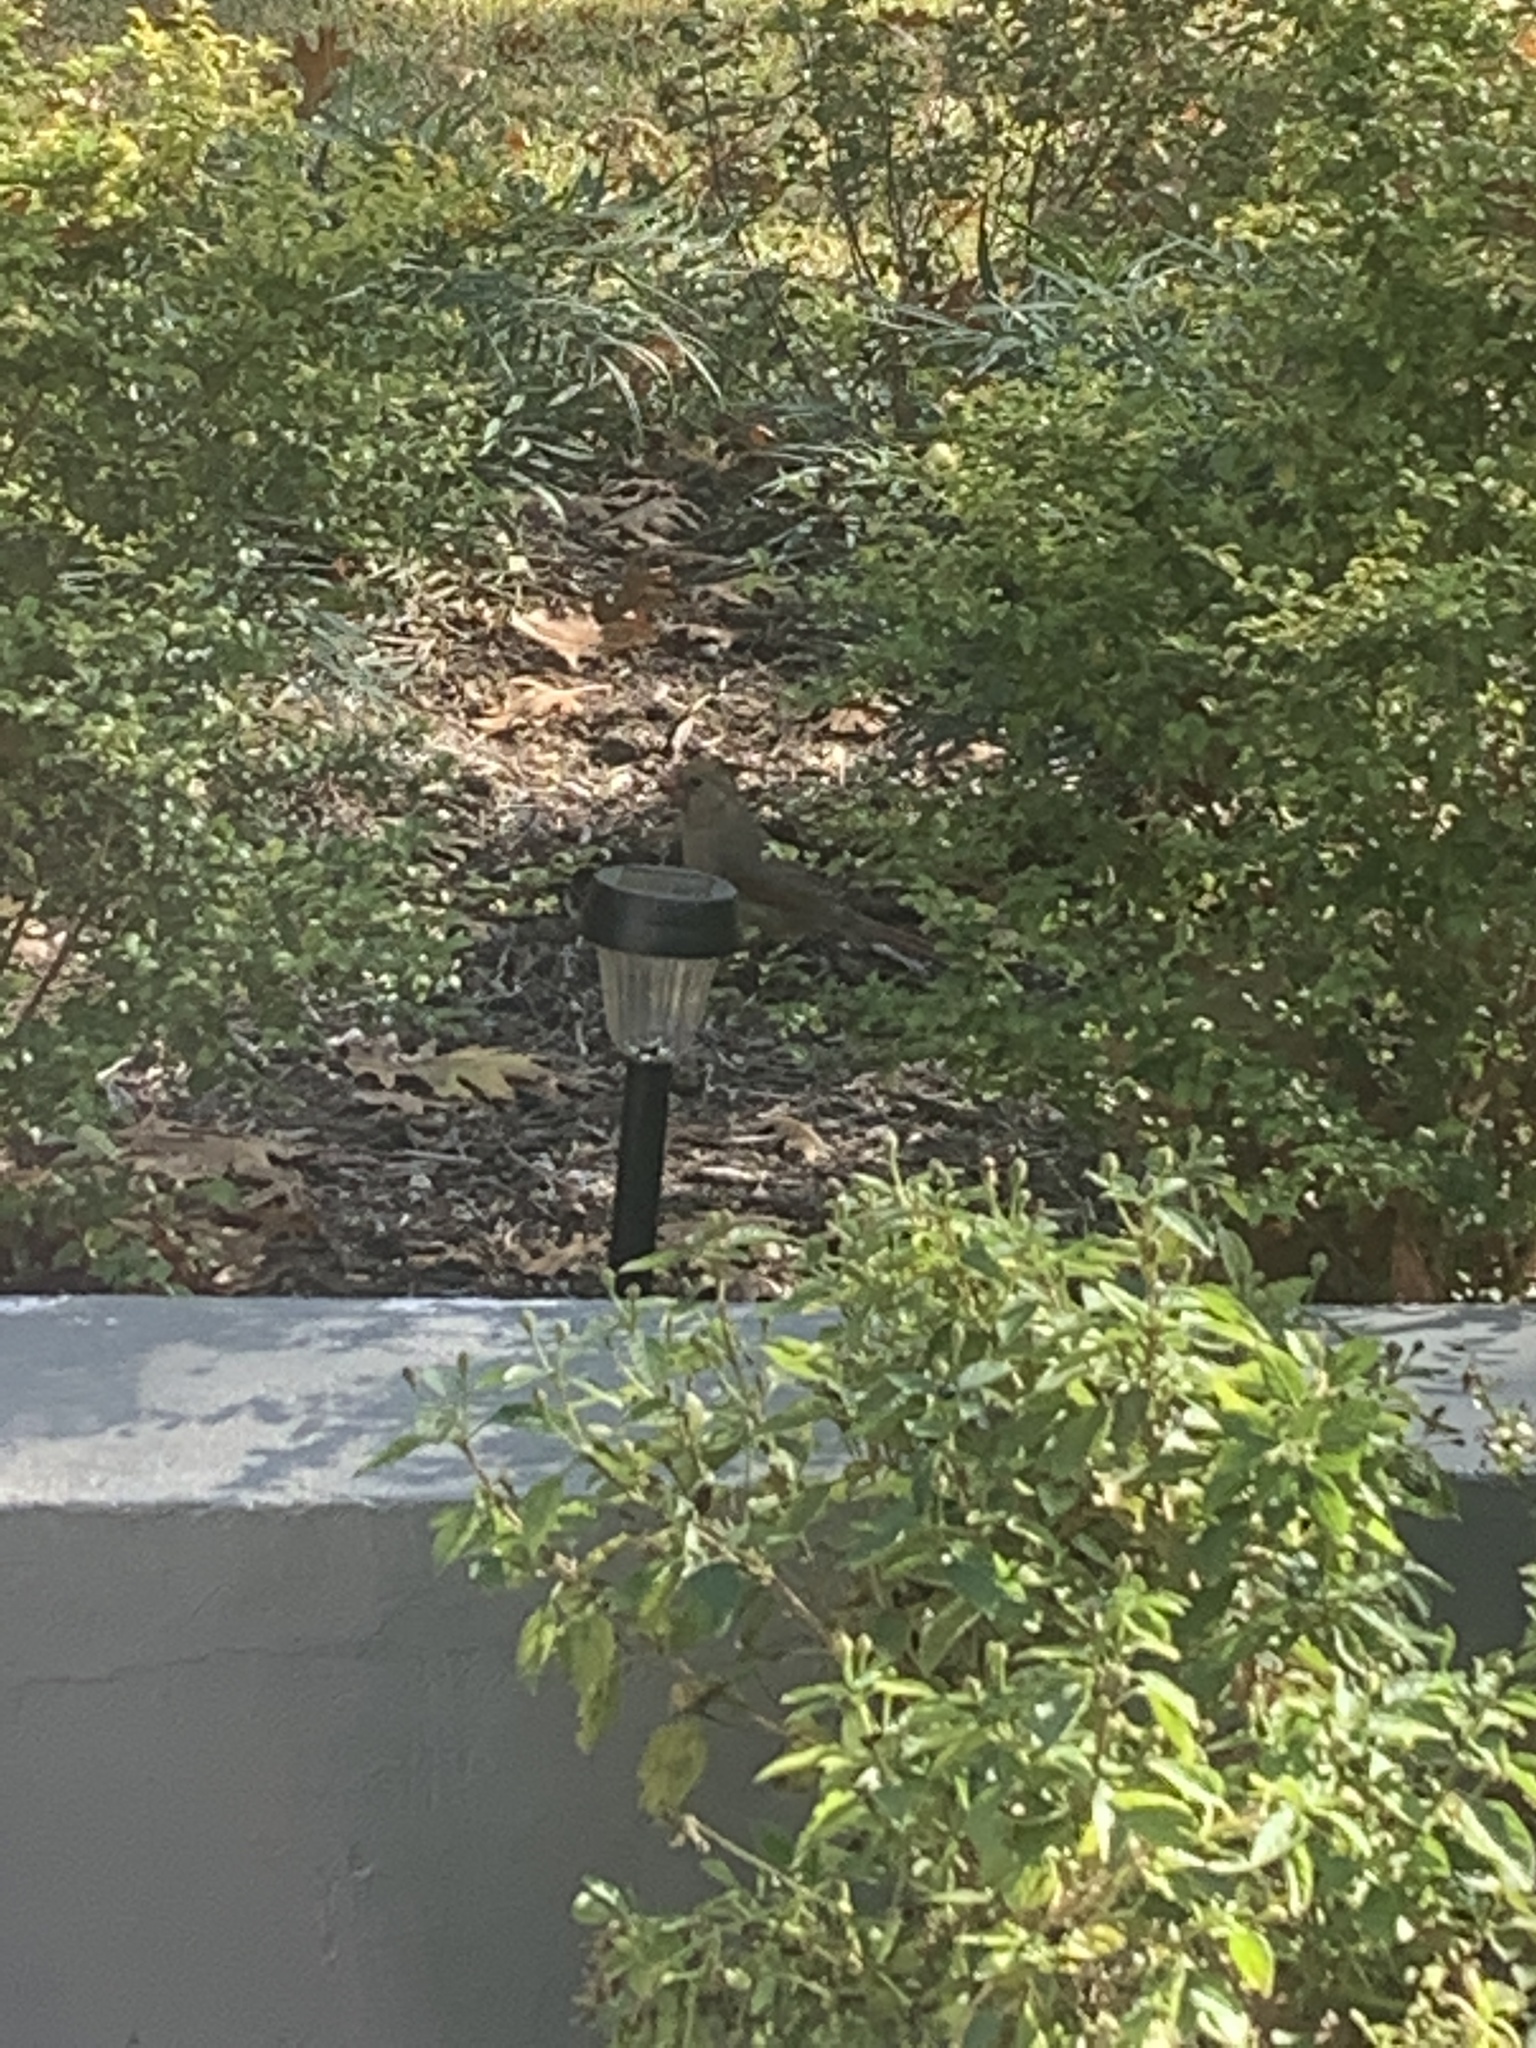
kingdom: Animalia
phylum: Chordata
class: Aves
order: Passeriformes
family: Cardinalidae
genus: Cardinalis
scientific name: Cardinalis cardinalis
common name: Northern cardinal
